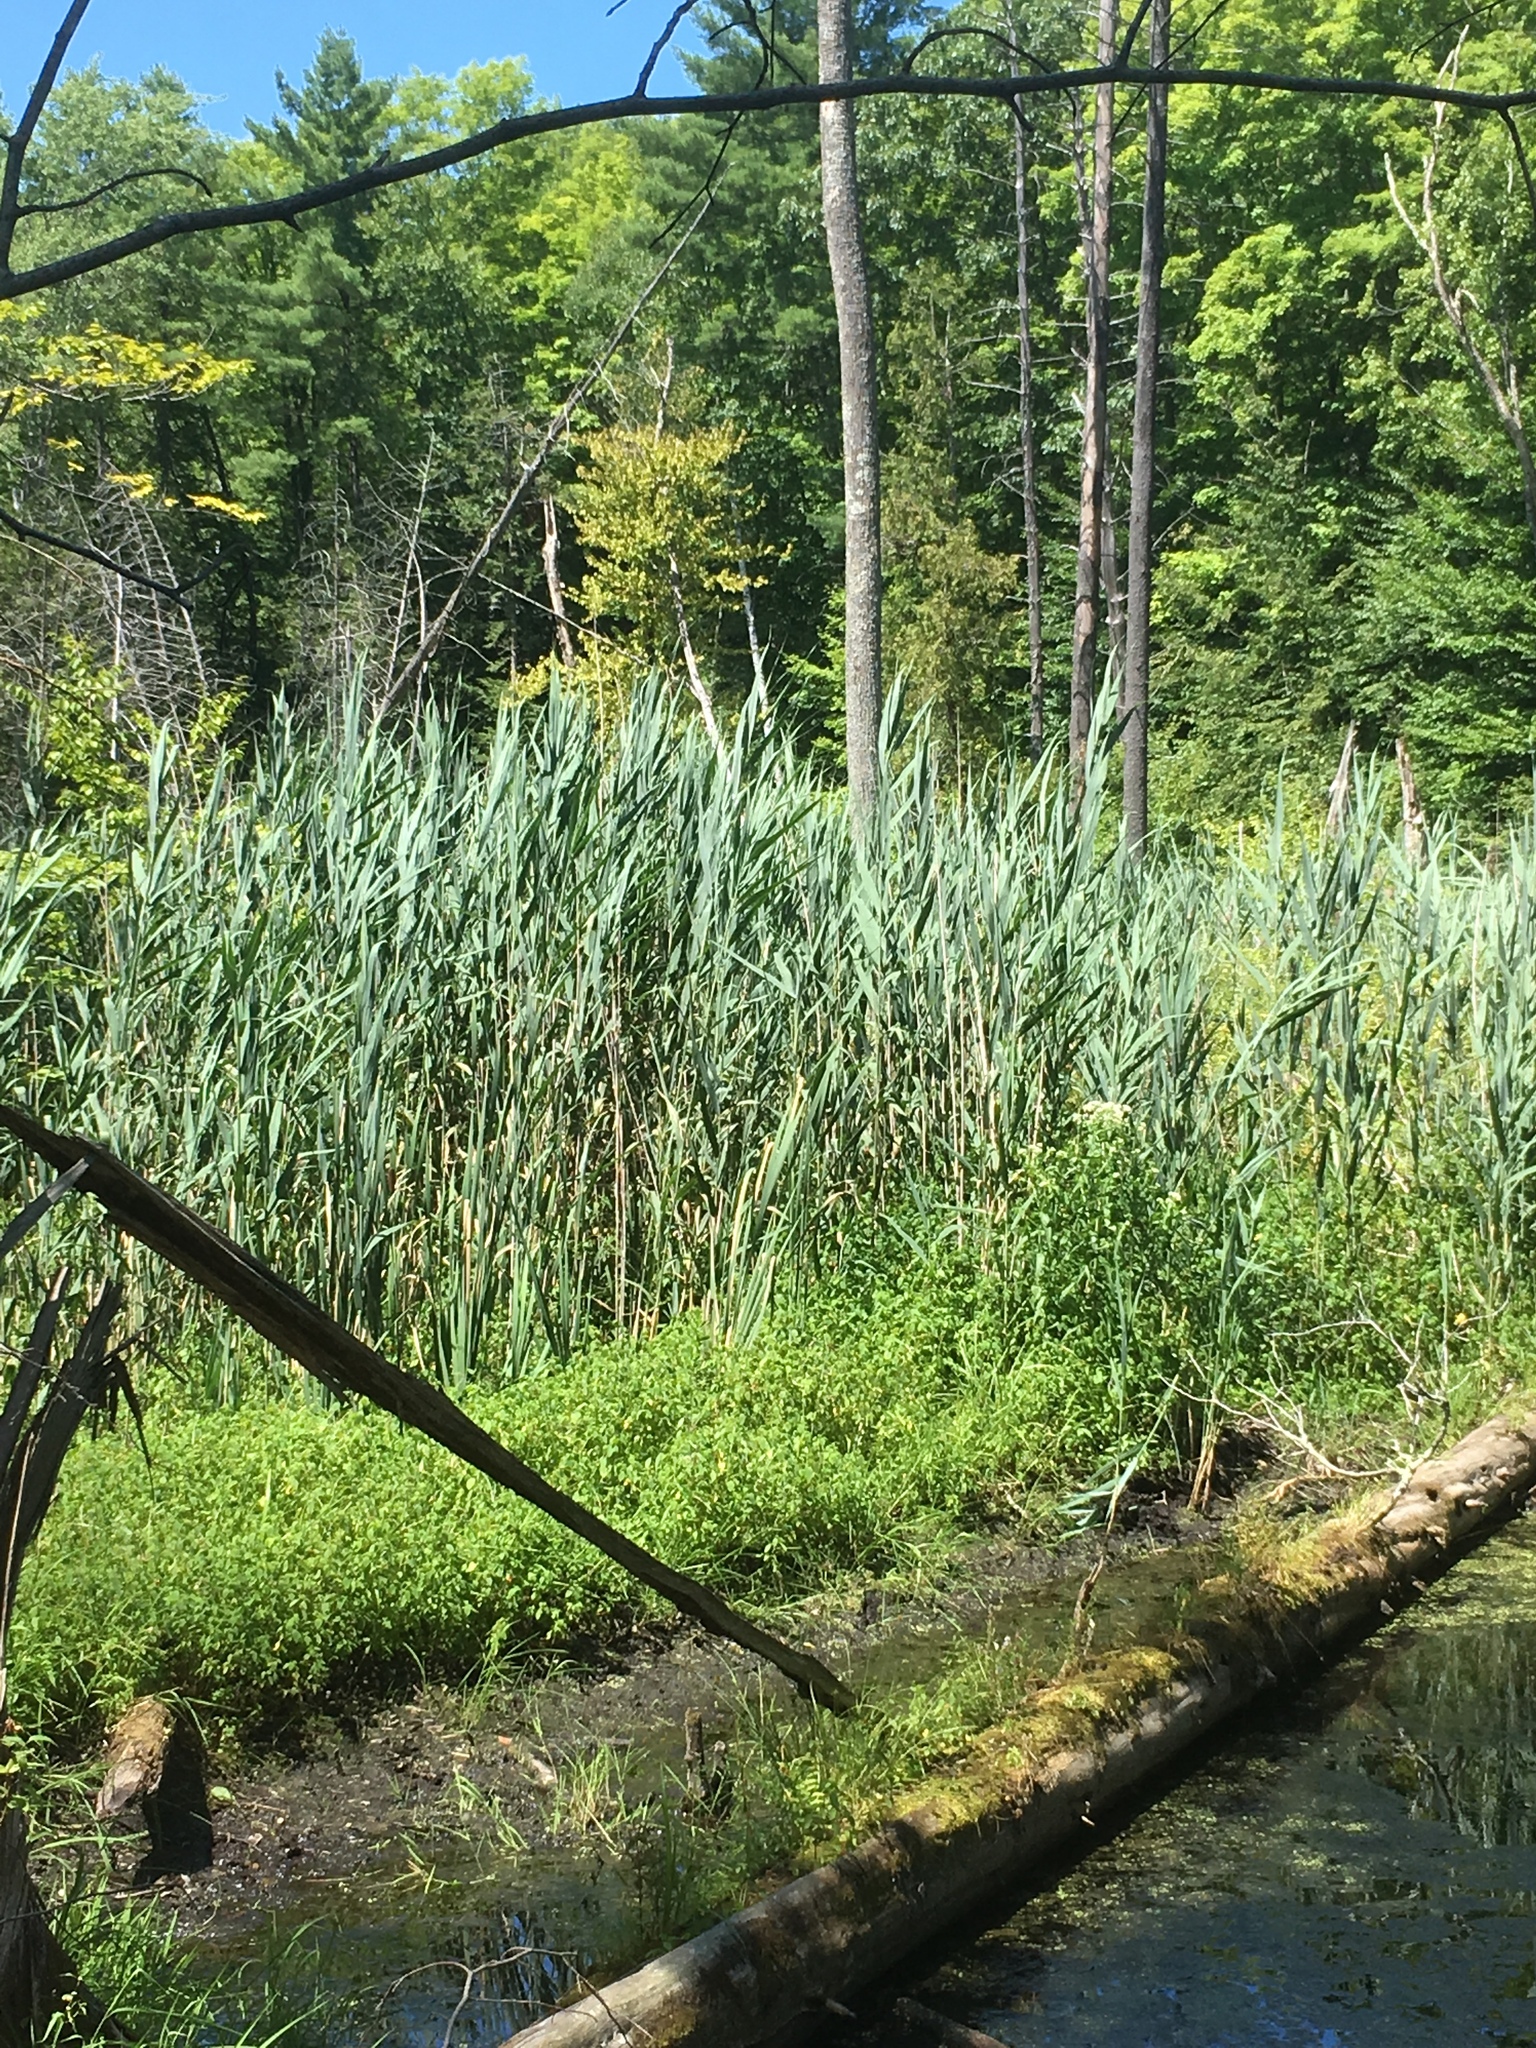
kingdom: Plantae
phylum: Tracheophyta
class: Liliopsida
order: Poales
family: Poaceae
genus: Phragmites
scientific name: Phragmites australis
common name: Common reed
